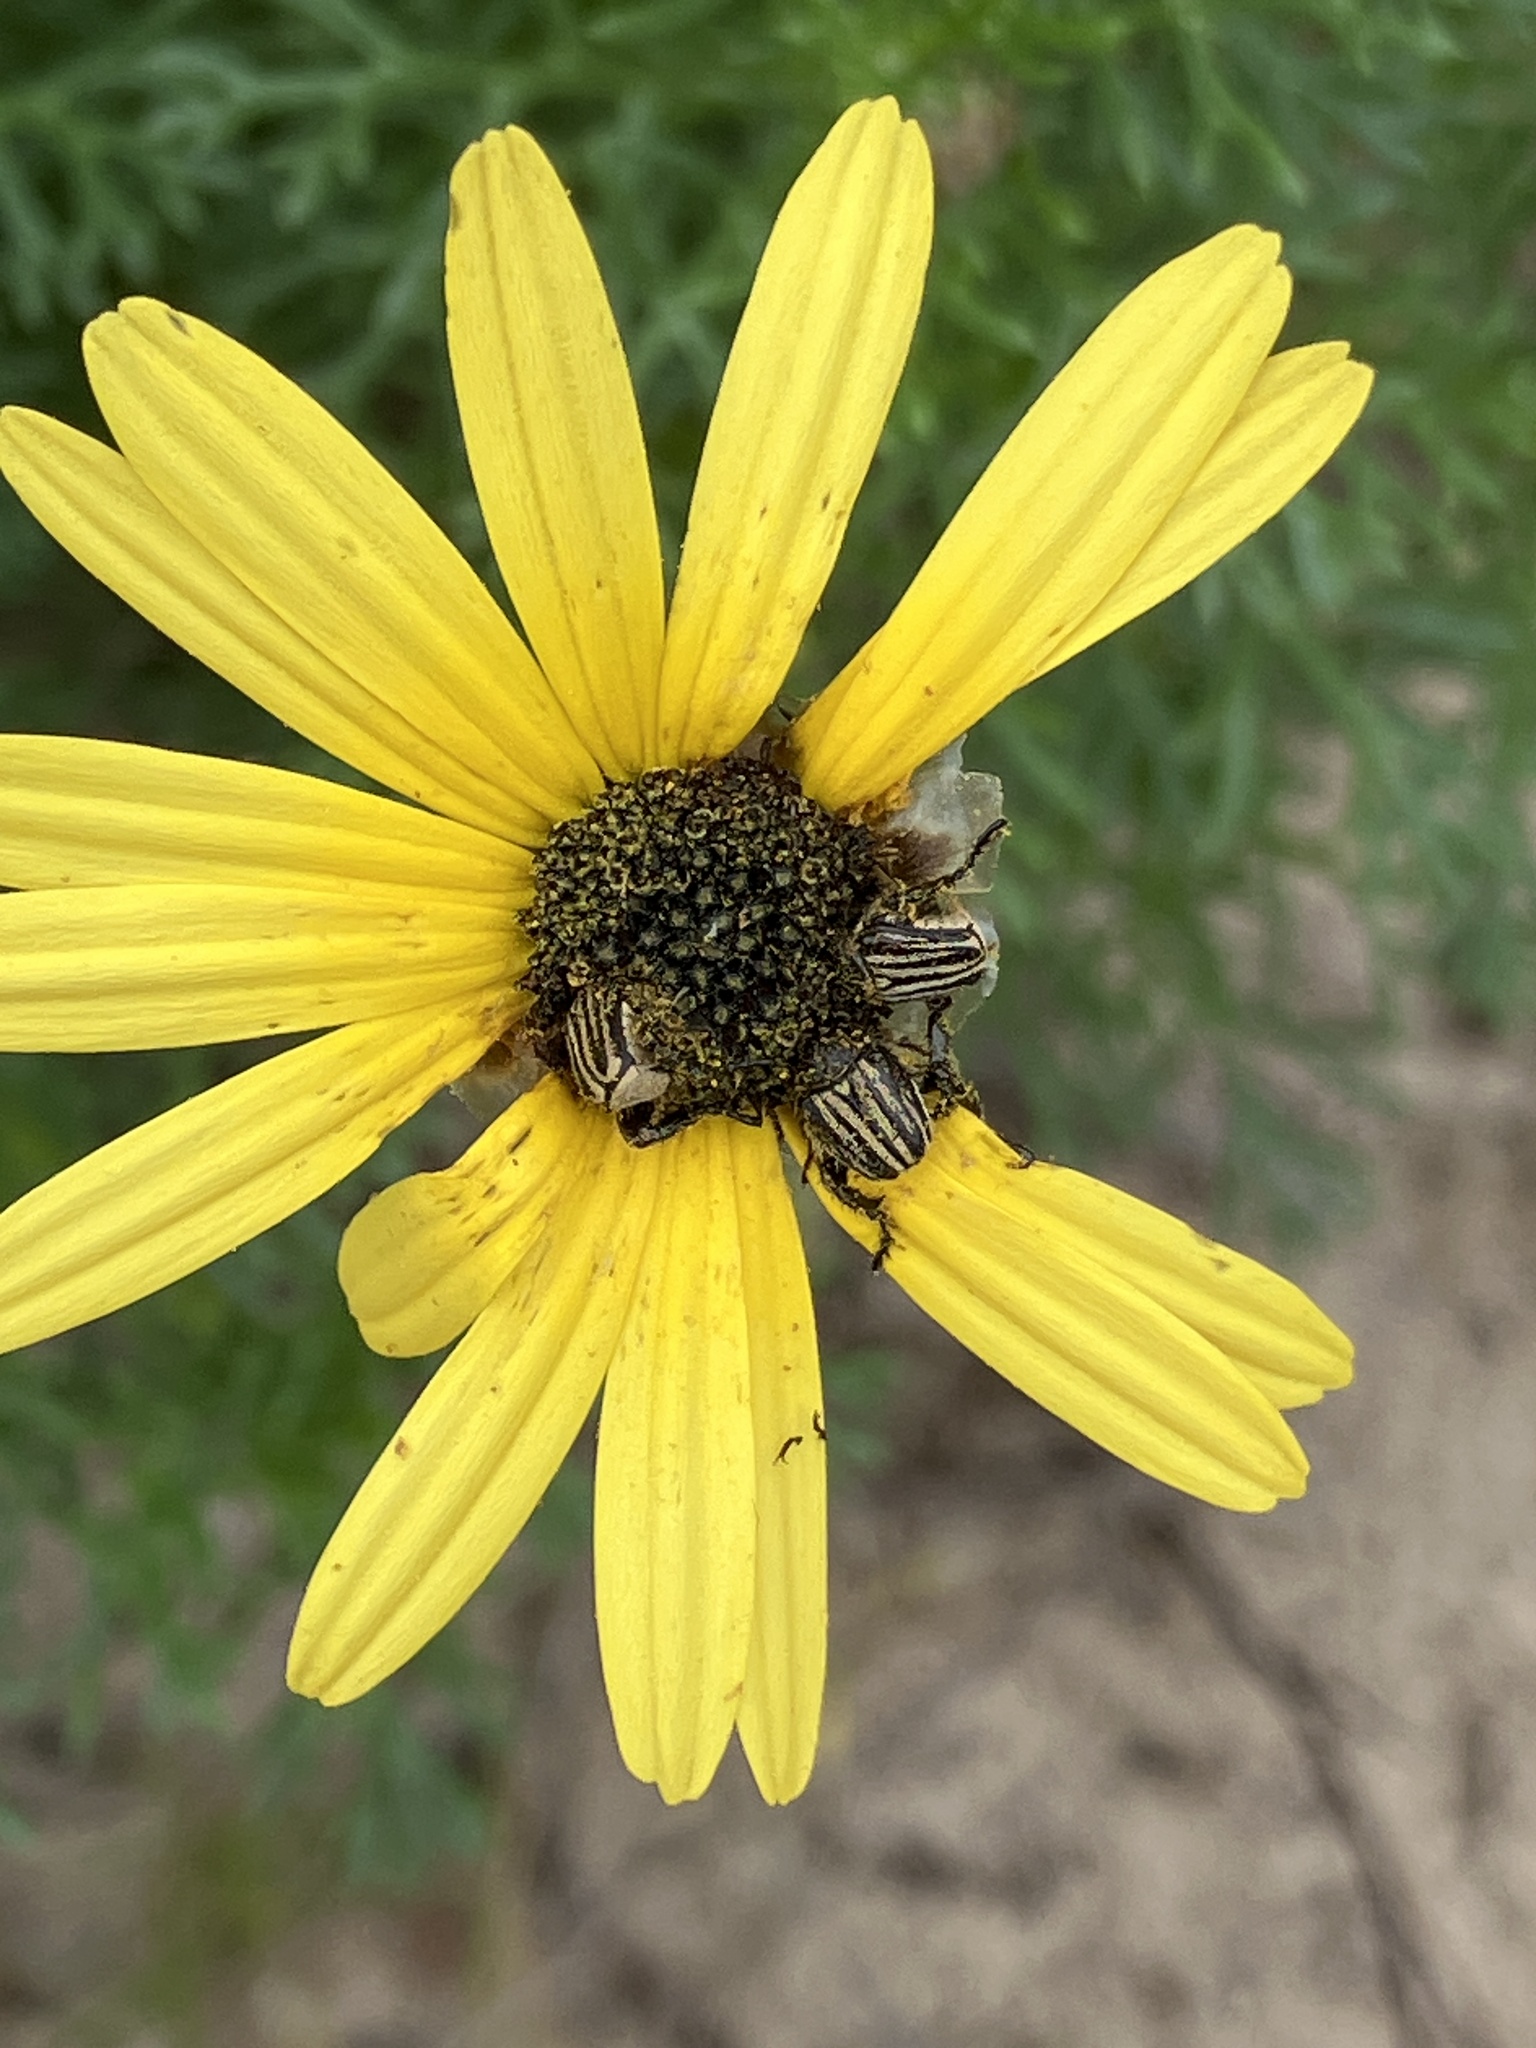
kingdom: Plantae
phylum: Tracheophyta
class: Magnoliopsida
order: Asterales
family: Asteraceae
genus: Ursinia
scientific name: Ursinia chrysanthemoides
